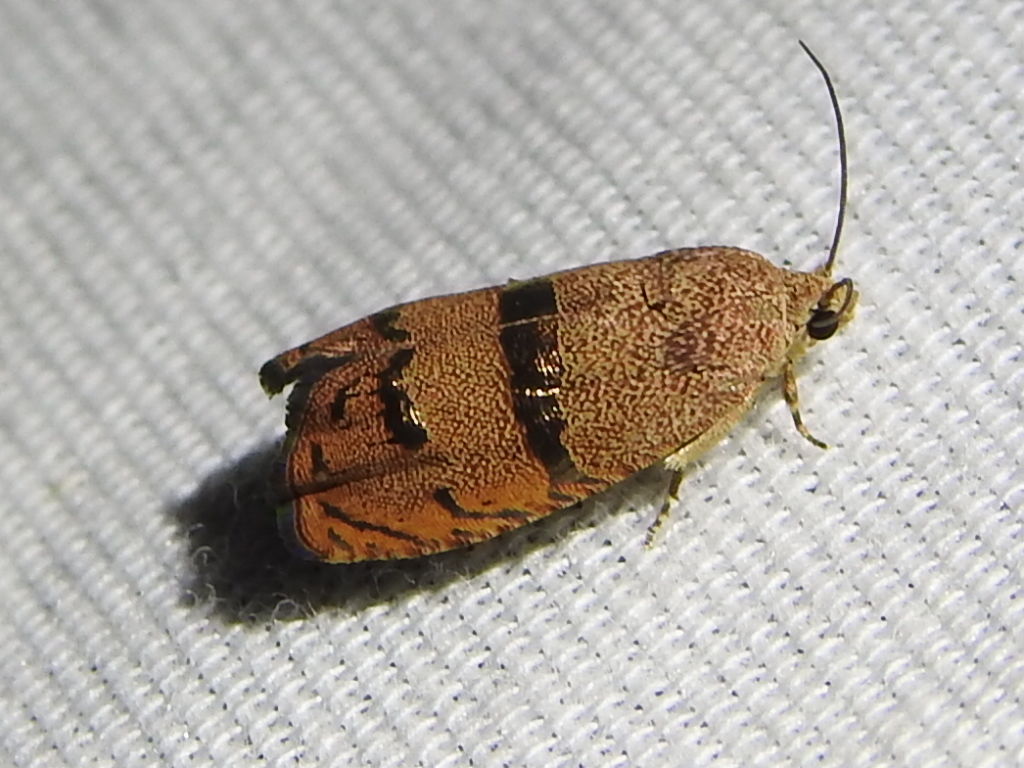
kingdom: Animalia
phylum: Arthropoda
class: Insecta
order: Lepidoptera
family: Tortricidae
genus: Cydia
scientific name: Cydia latiferreana
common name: Filbertworm moth
